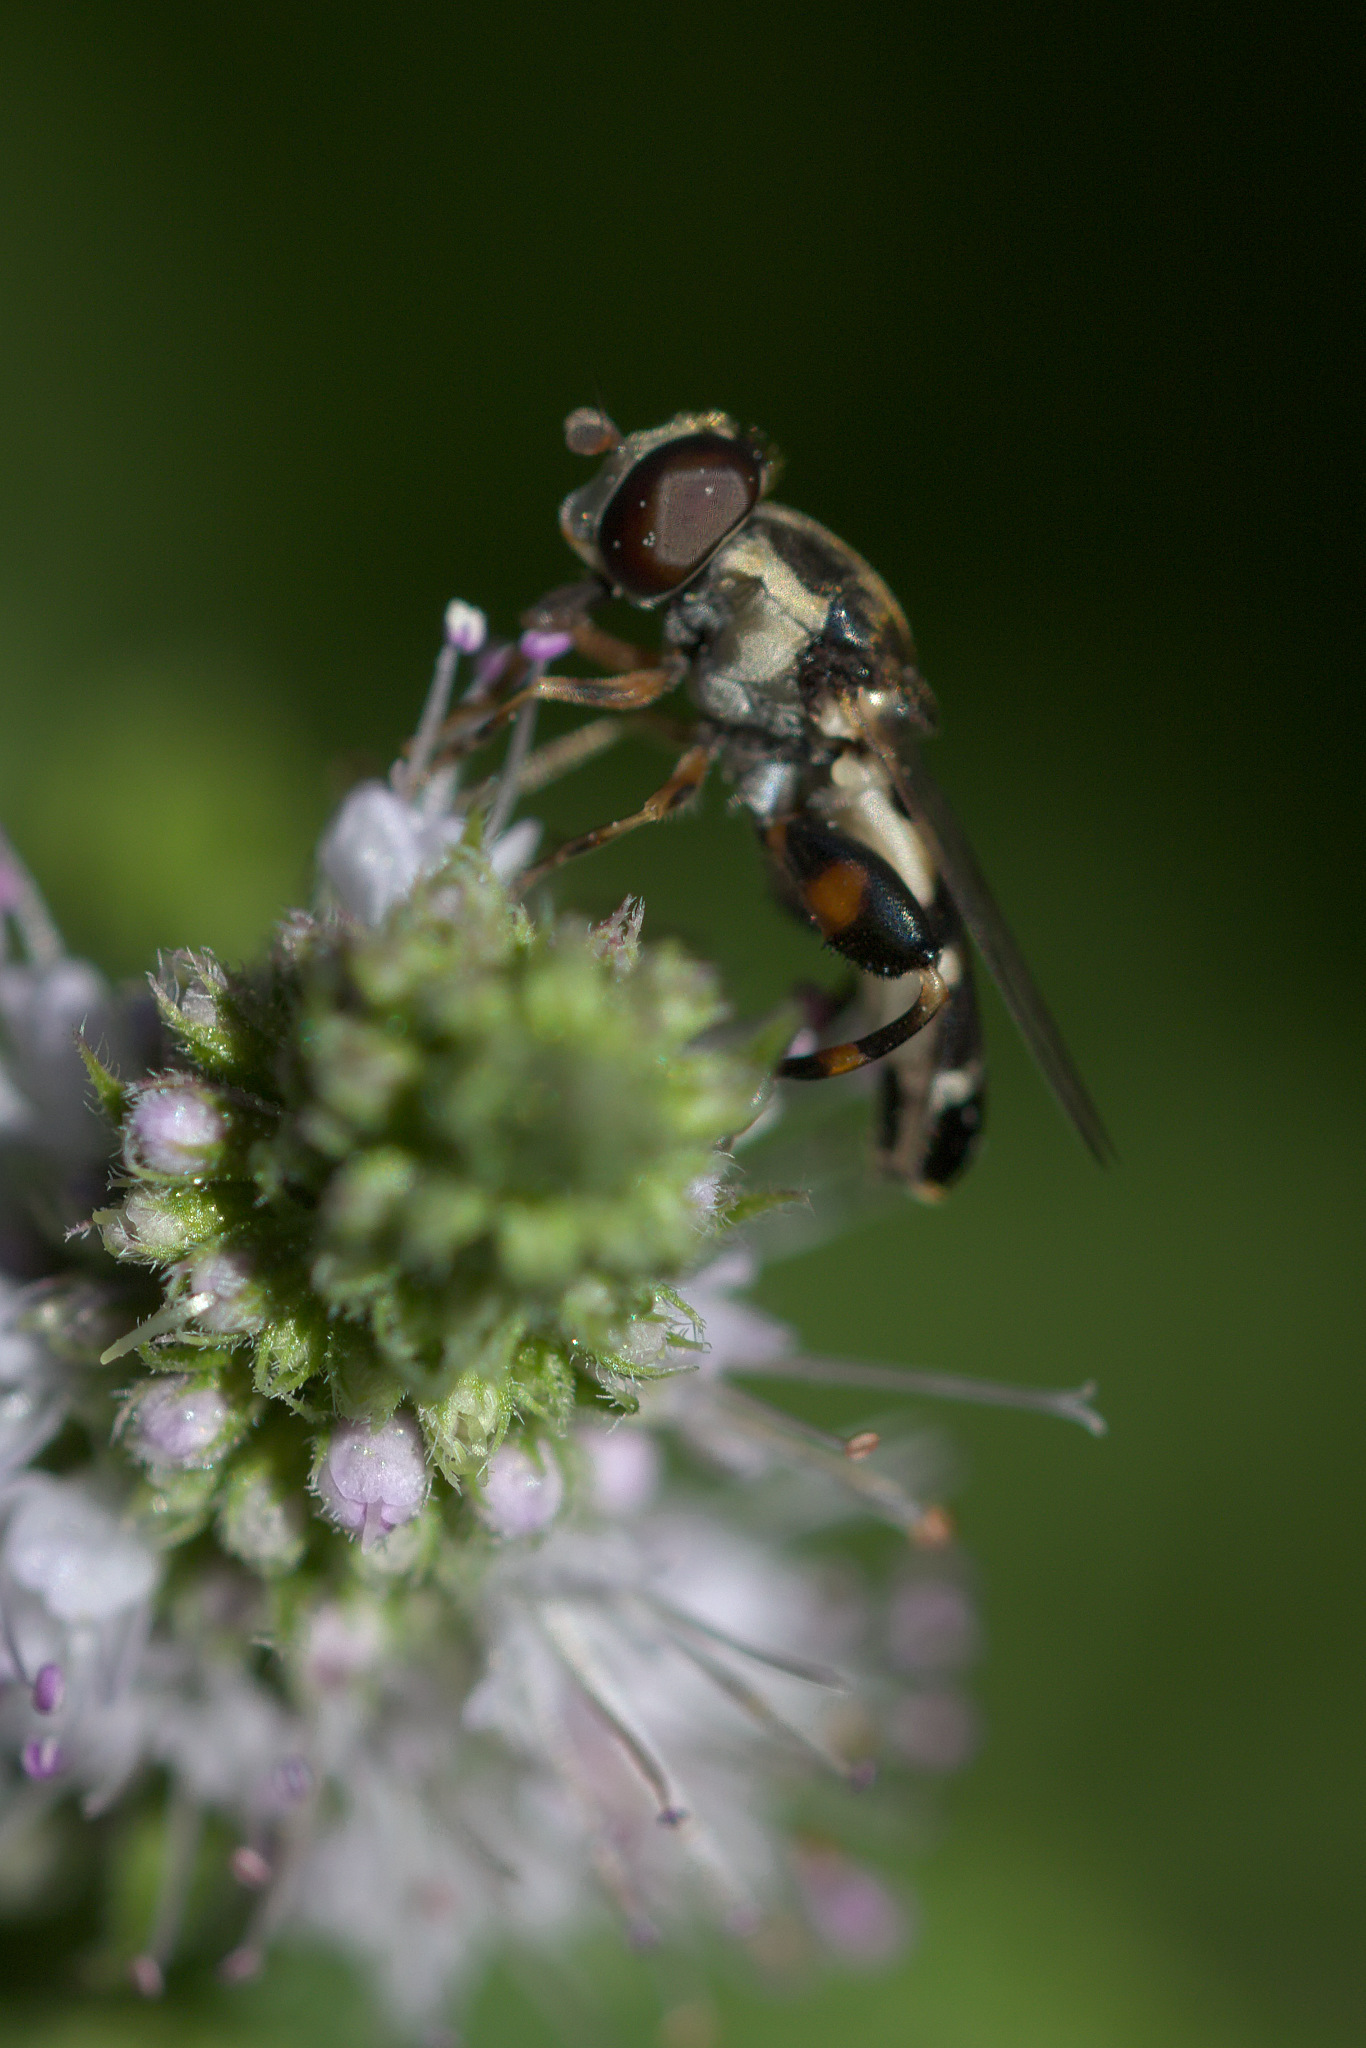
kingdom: Animalia
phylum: Arthropoda
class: Insecta
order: Diptera
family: Syrphidae
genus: Syritta
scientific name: Syritta pipiens
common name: Hover fly
